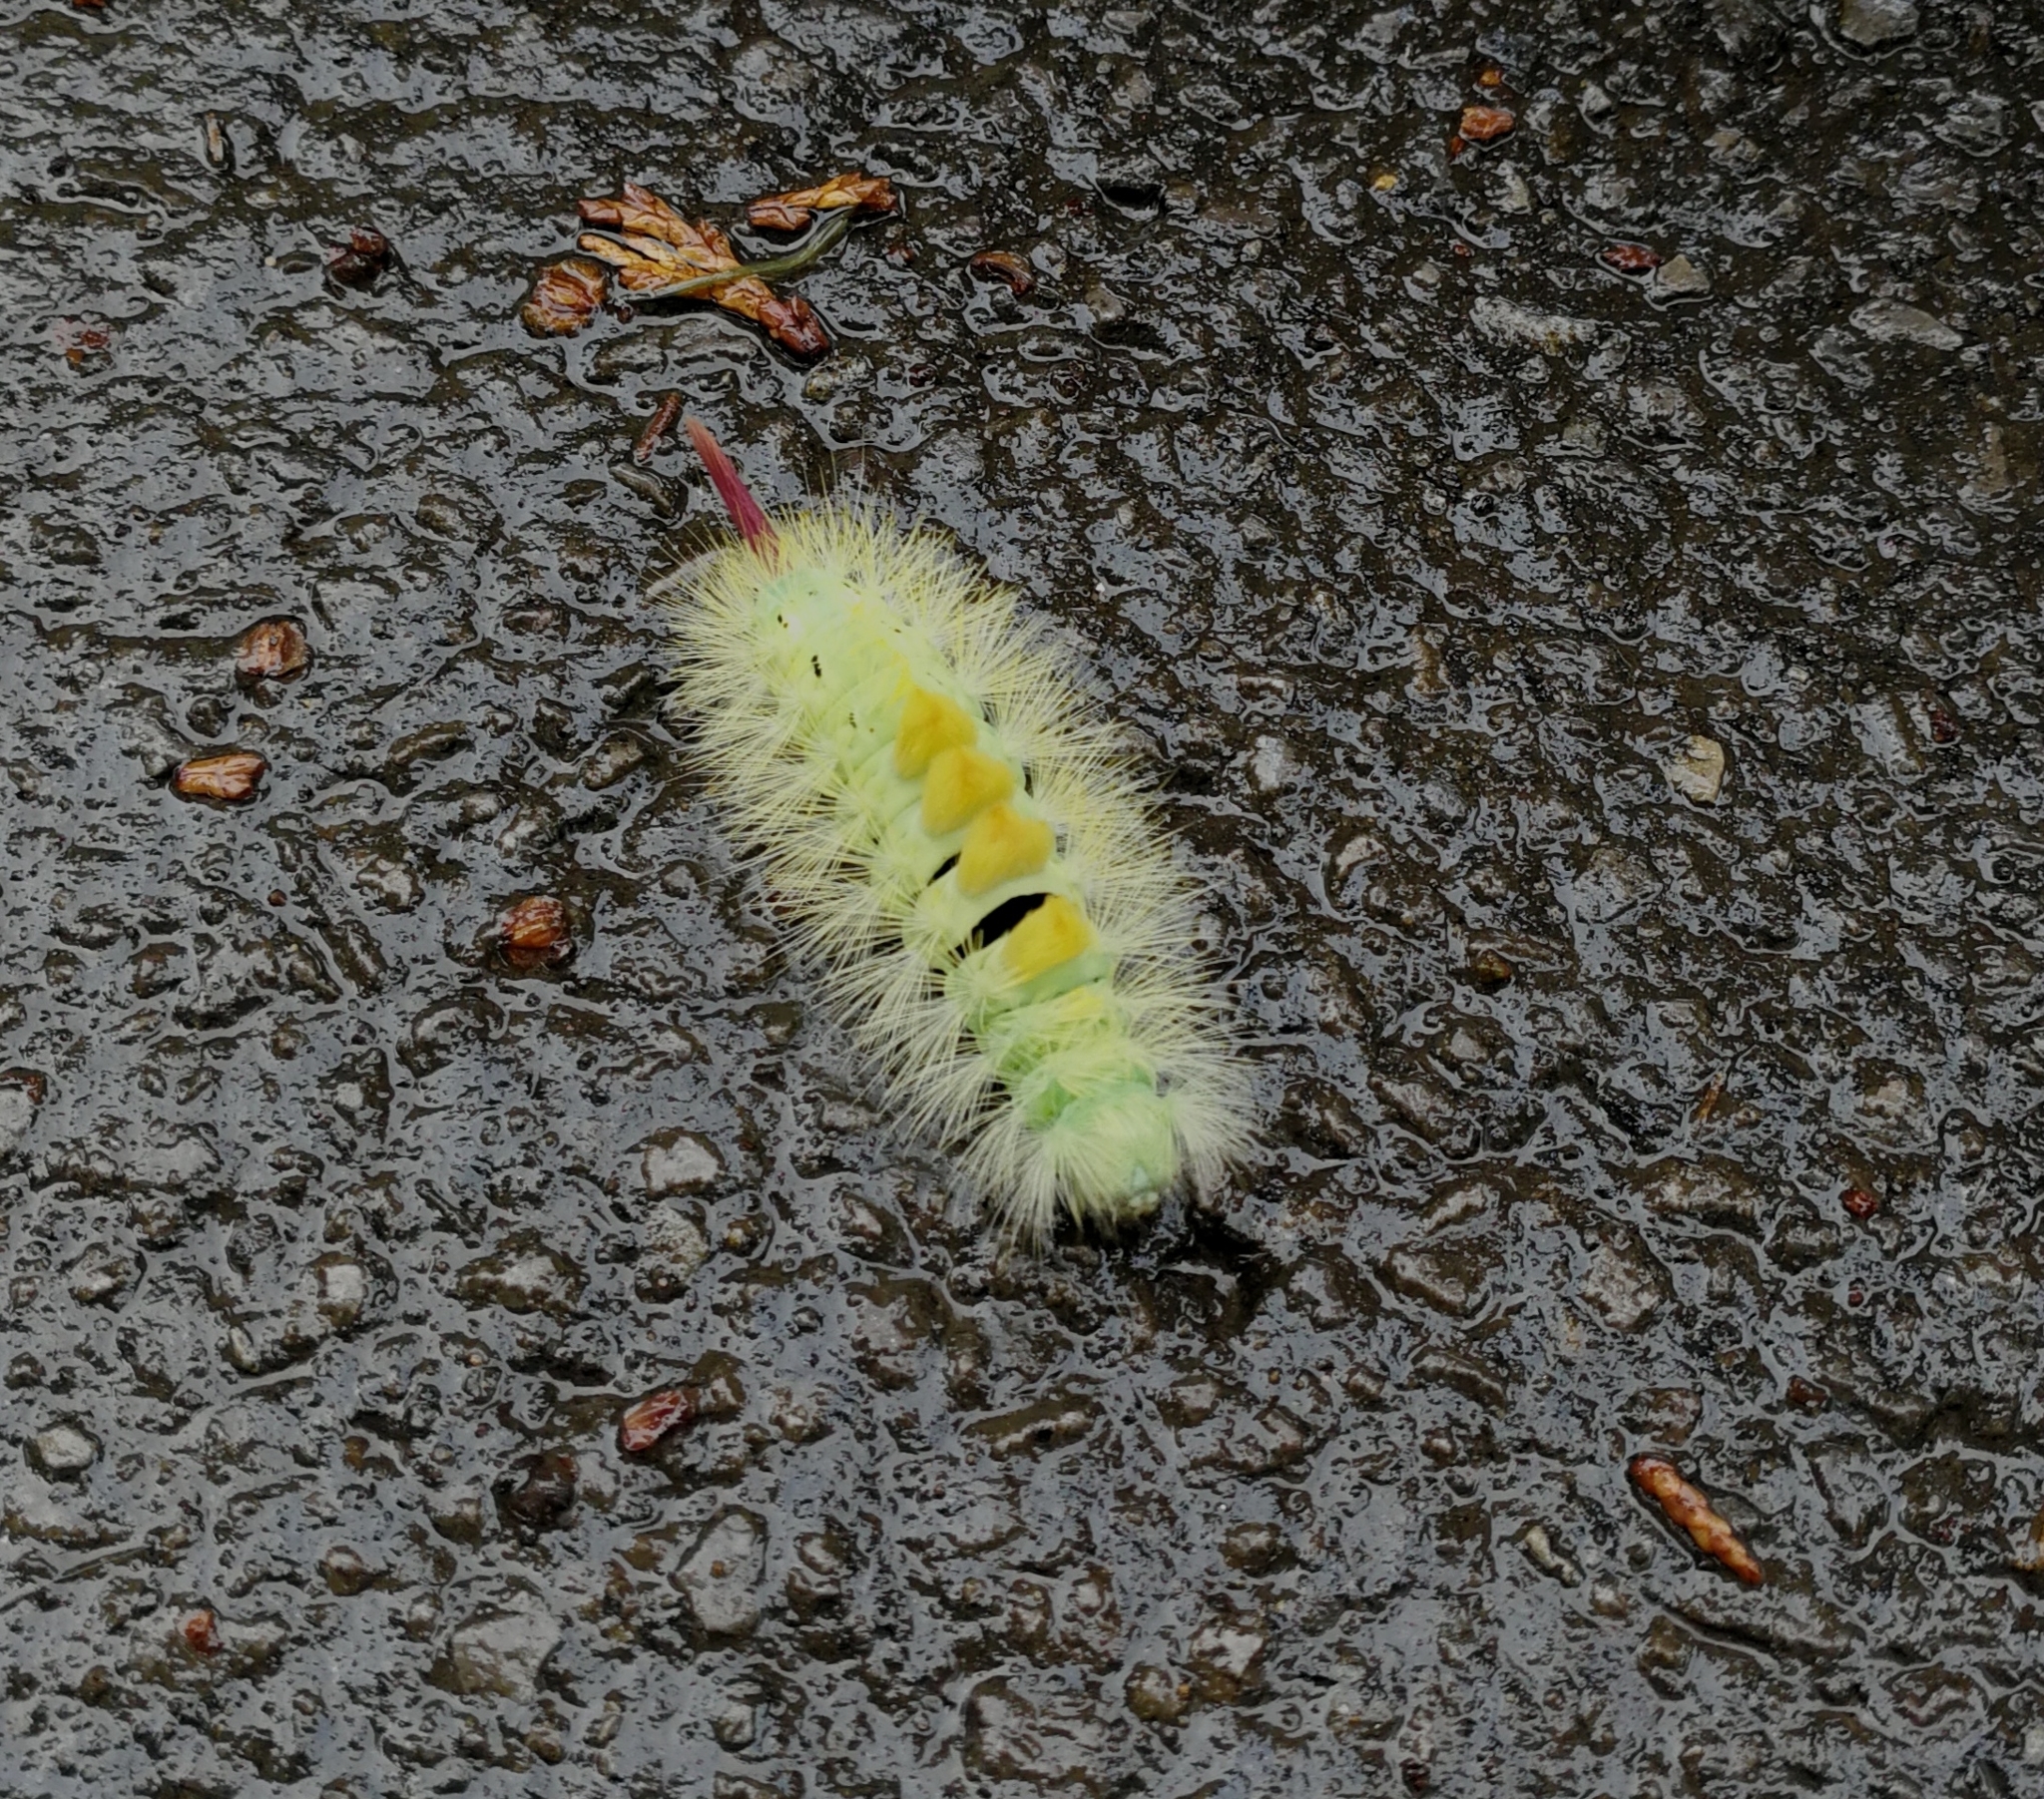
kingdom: Animalia
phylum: Arthropoda
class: Insecta
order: Lepidoptera
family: Erebidae
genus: Calliteara
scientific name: Calliteara pudibunda
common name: Pale tussock
